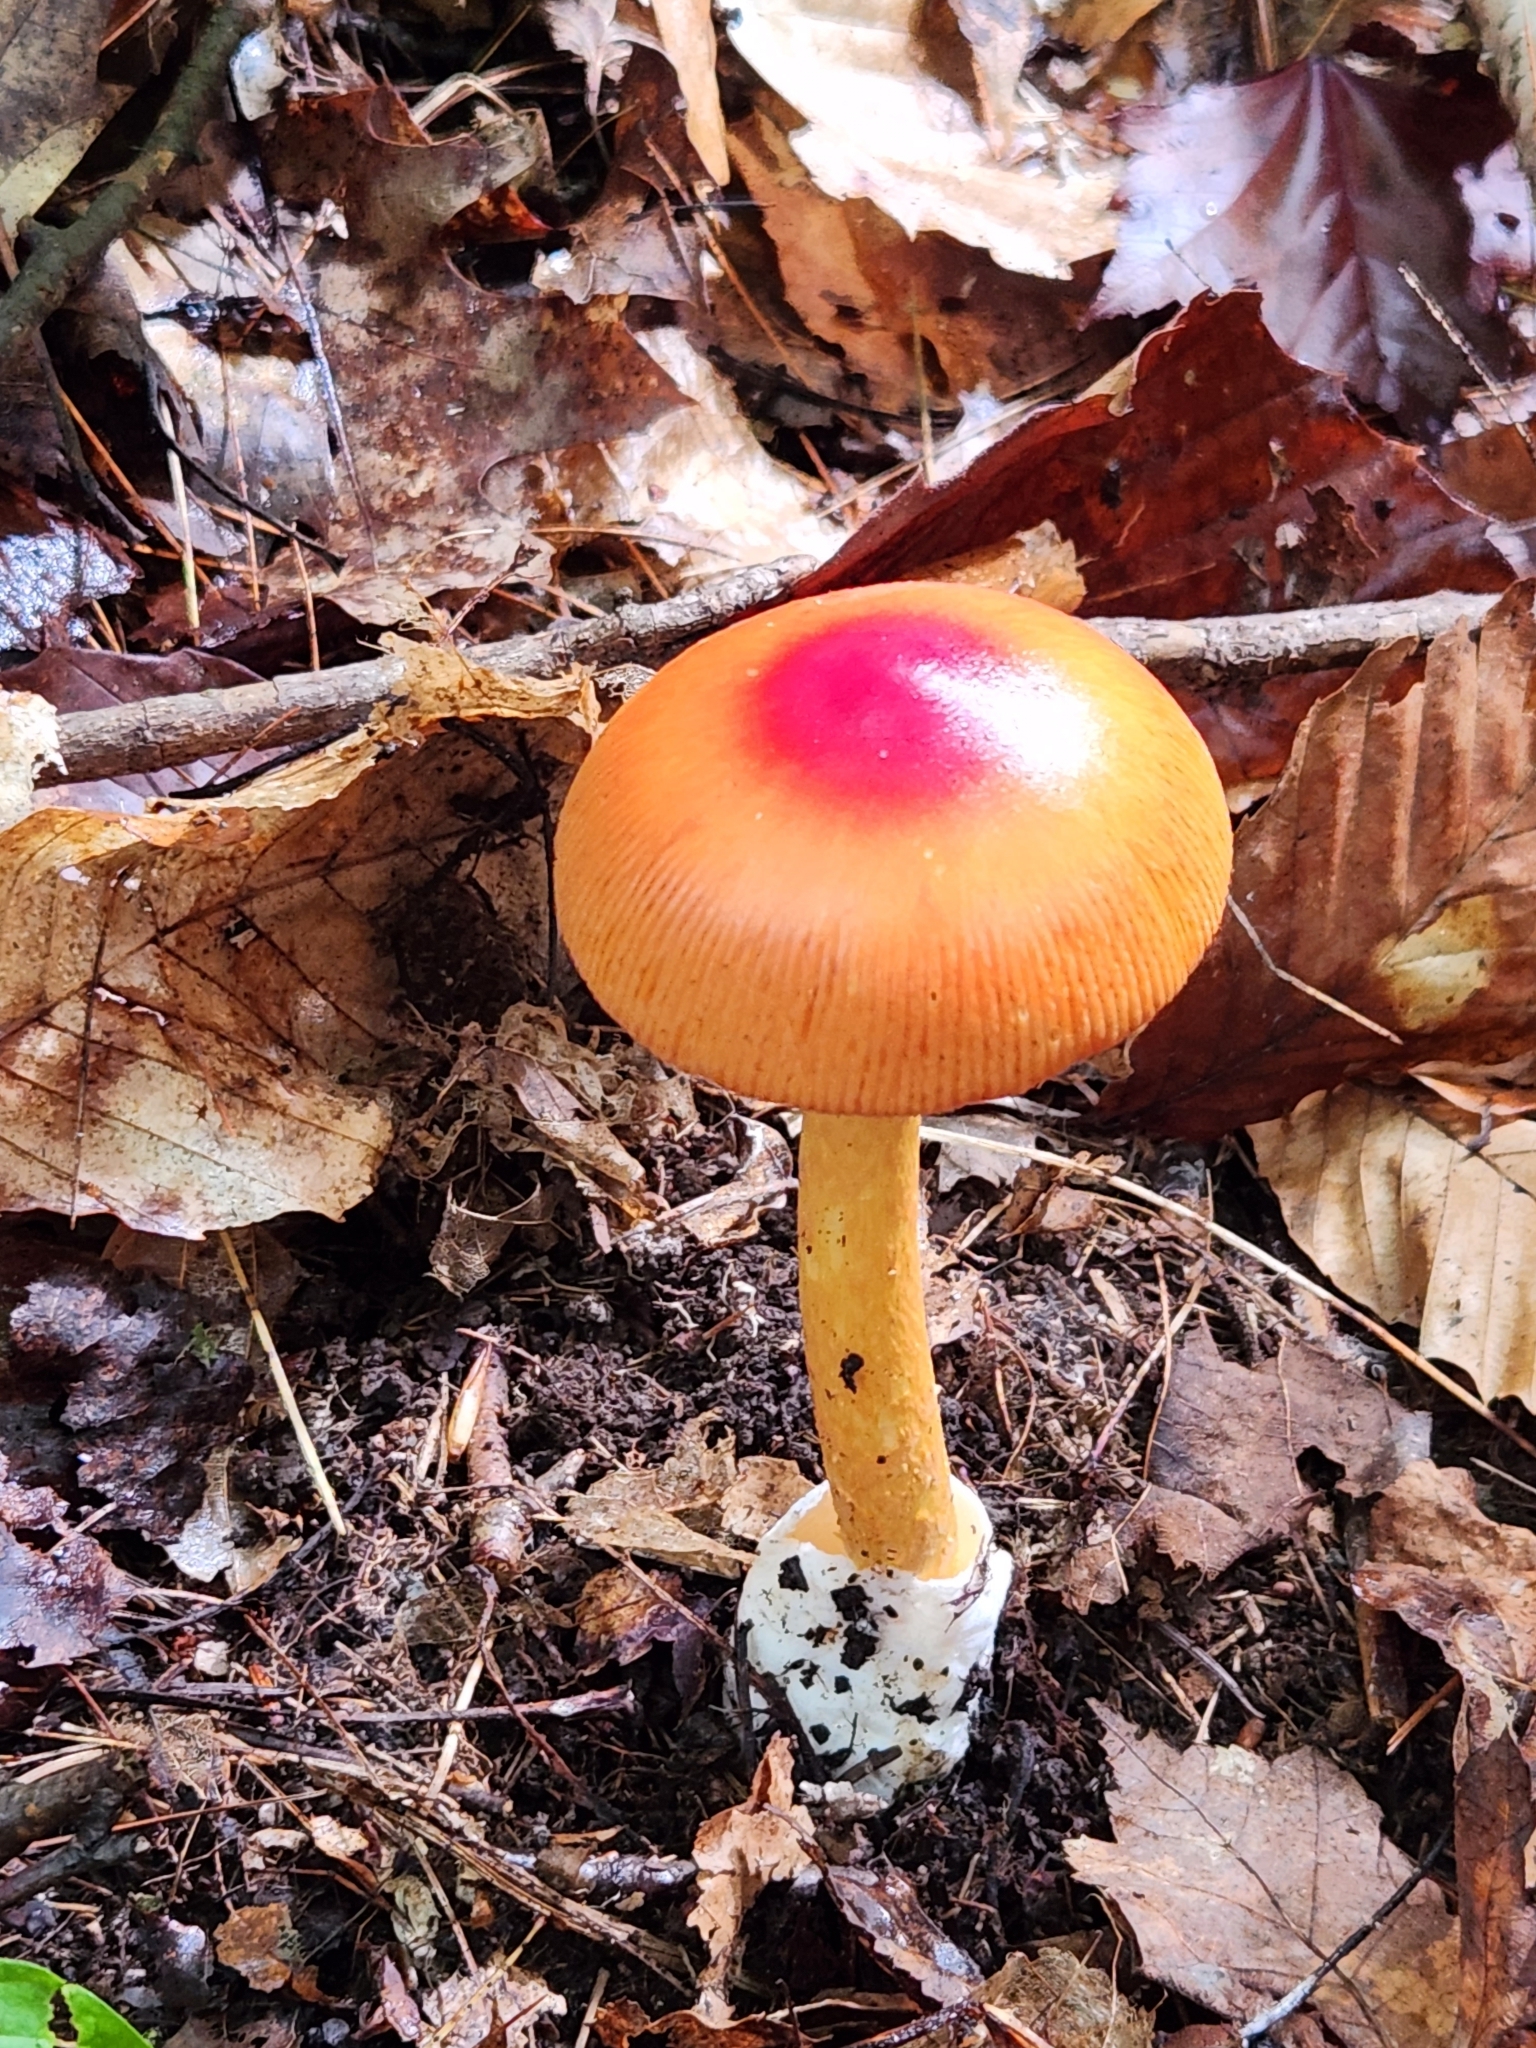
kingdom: Fungi
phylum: Basidiomycota
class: Agaricomycetes
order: Agaricales
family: Amanitaceae
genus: Amanita
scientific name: Amanita jacksonii
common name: Jackson's slender caesar
